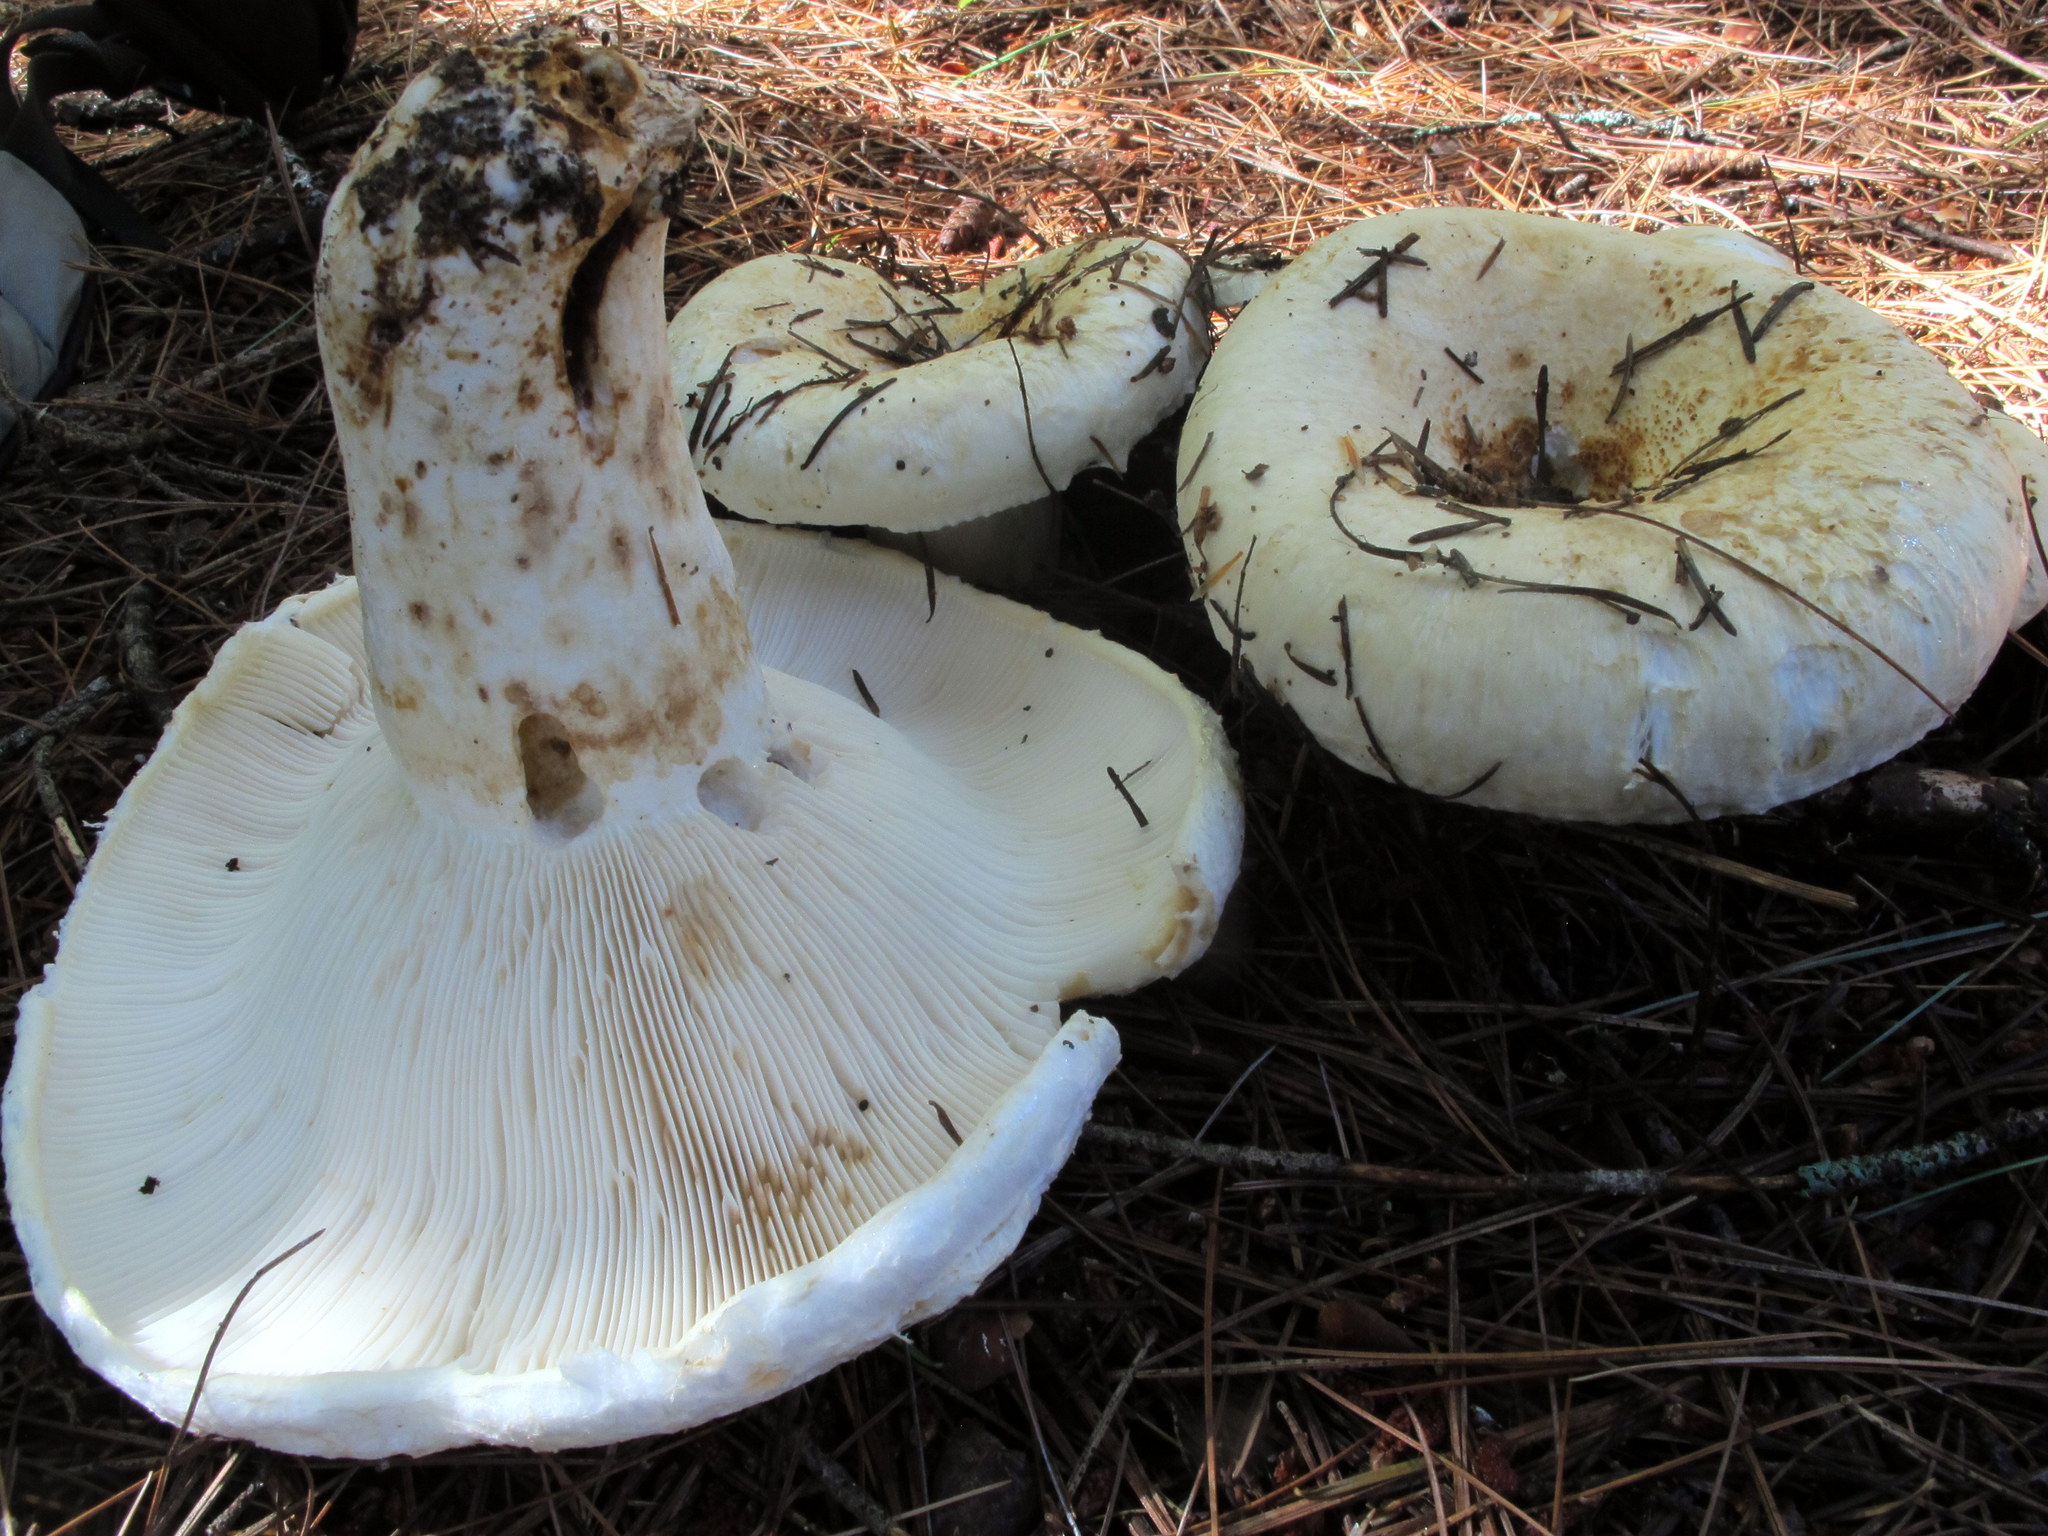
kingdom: Fungi
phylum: Basidiomycota
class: Agaricomycetes
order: Russulales
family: Russulaceae
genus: Lactifluus
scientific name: Lactifluus
